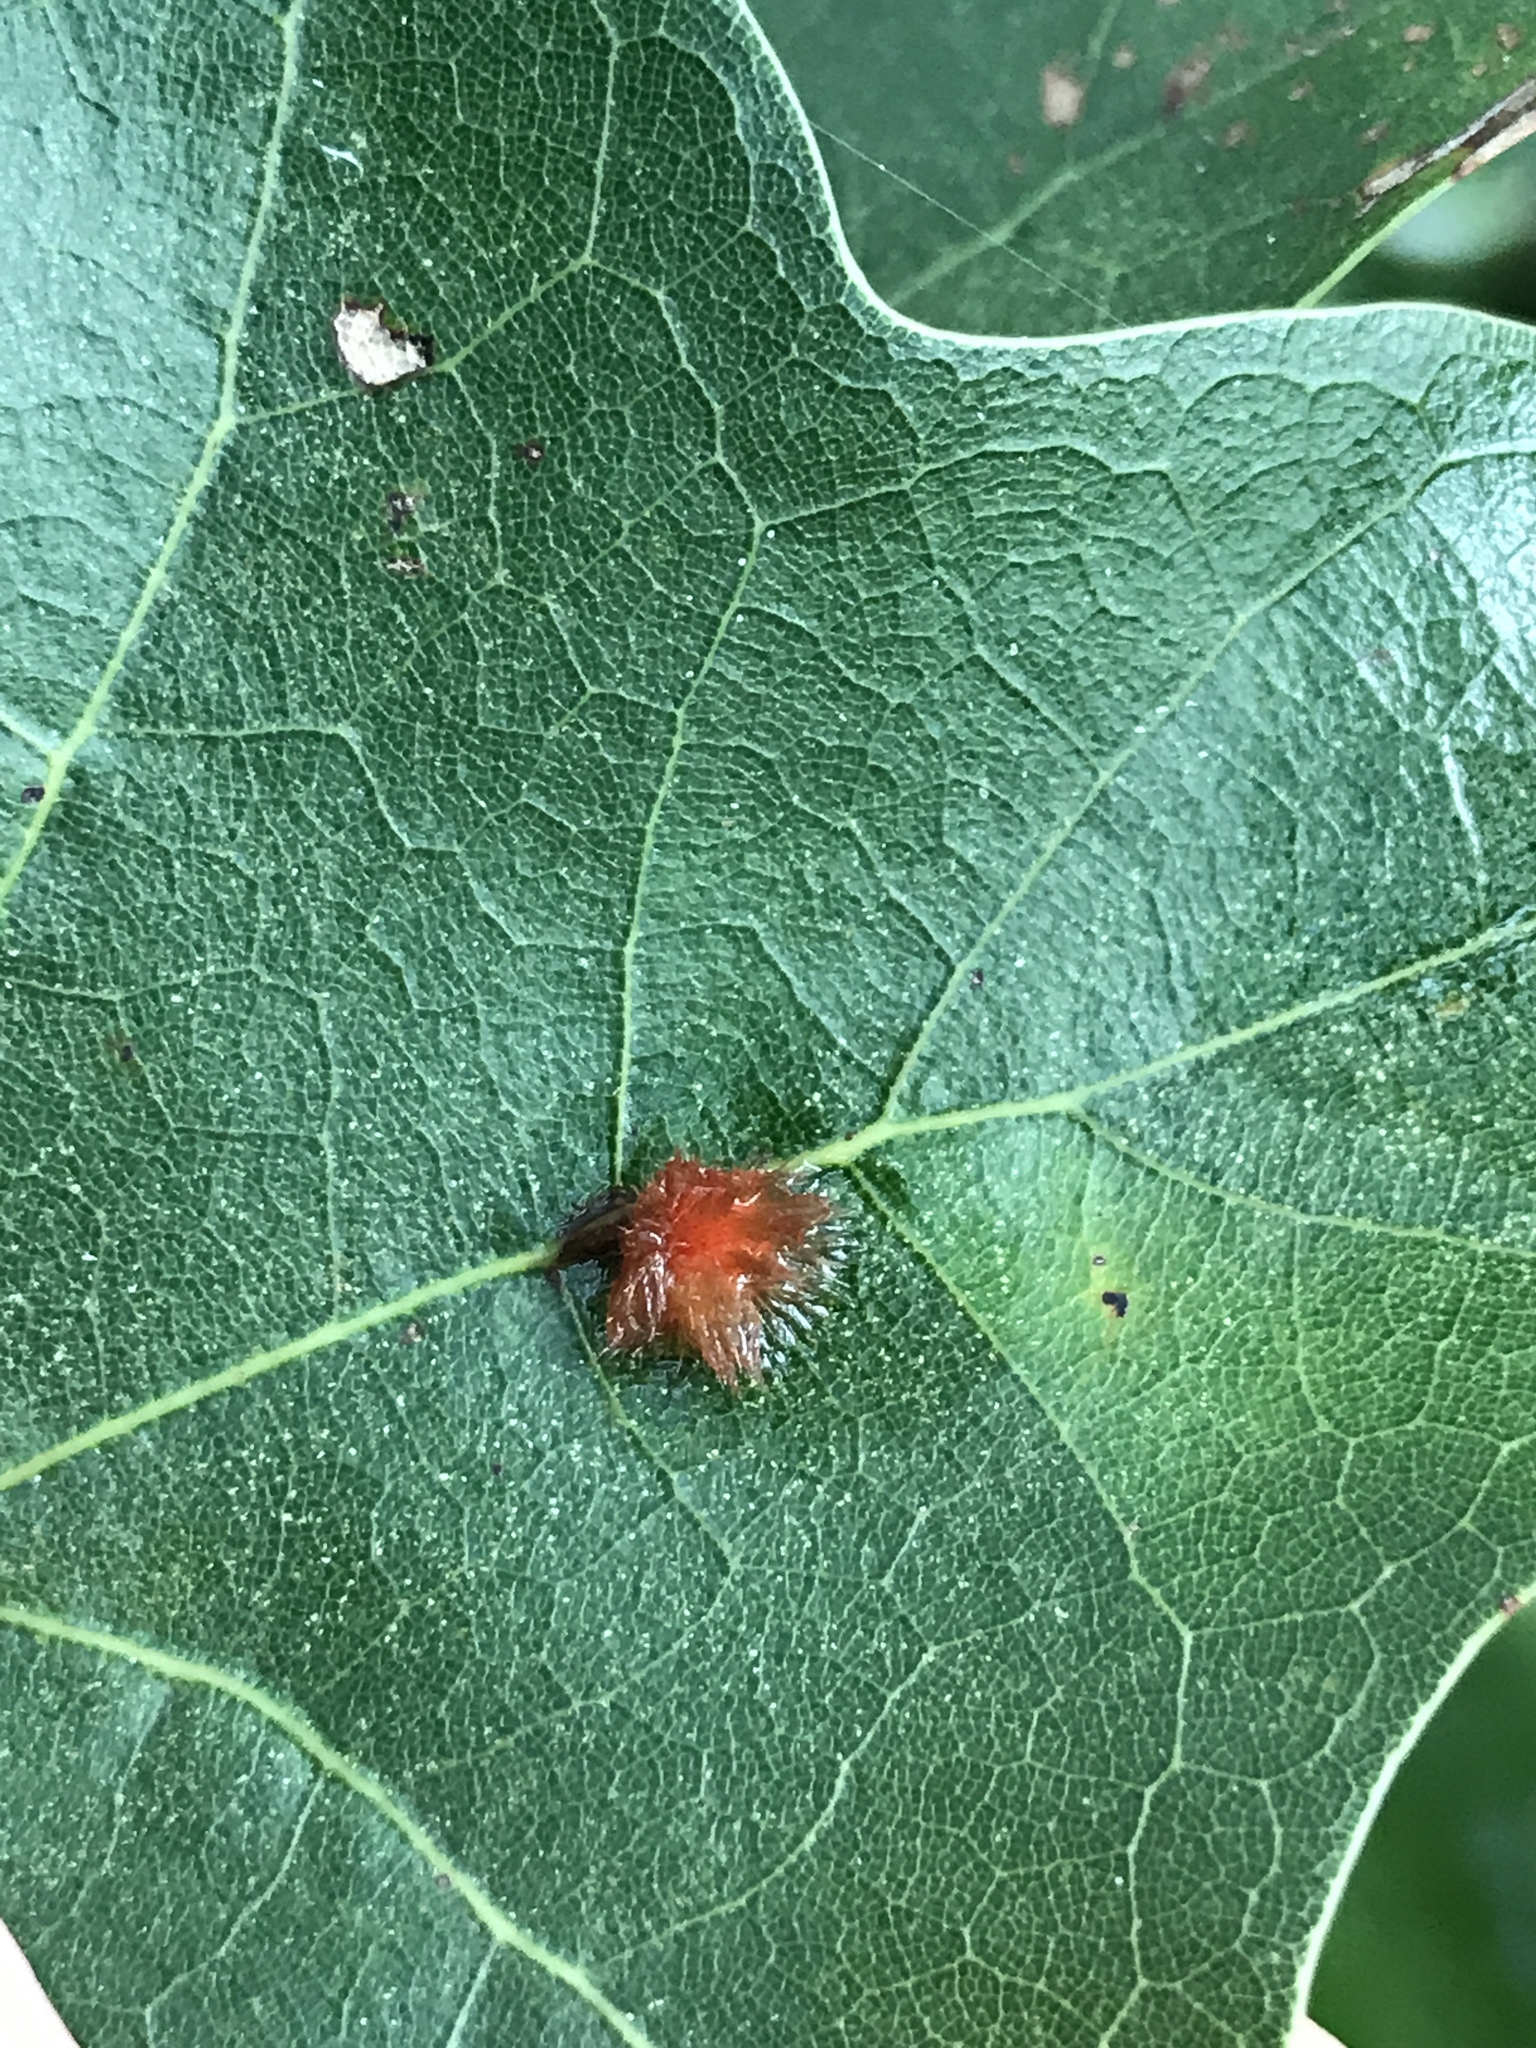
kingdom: Animalia
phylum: Arthropoda
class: Insecta
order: Hymenoptera
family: Cynipidae
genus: Callirhytis
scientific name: Callirhytis
